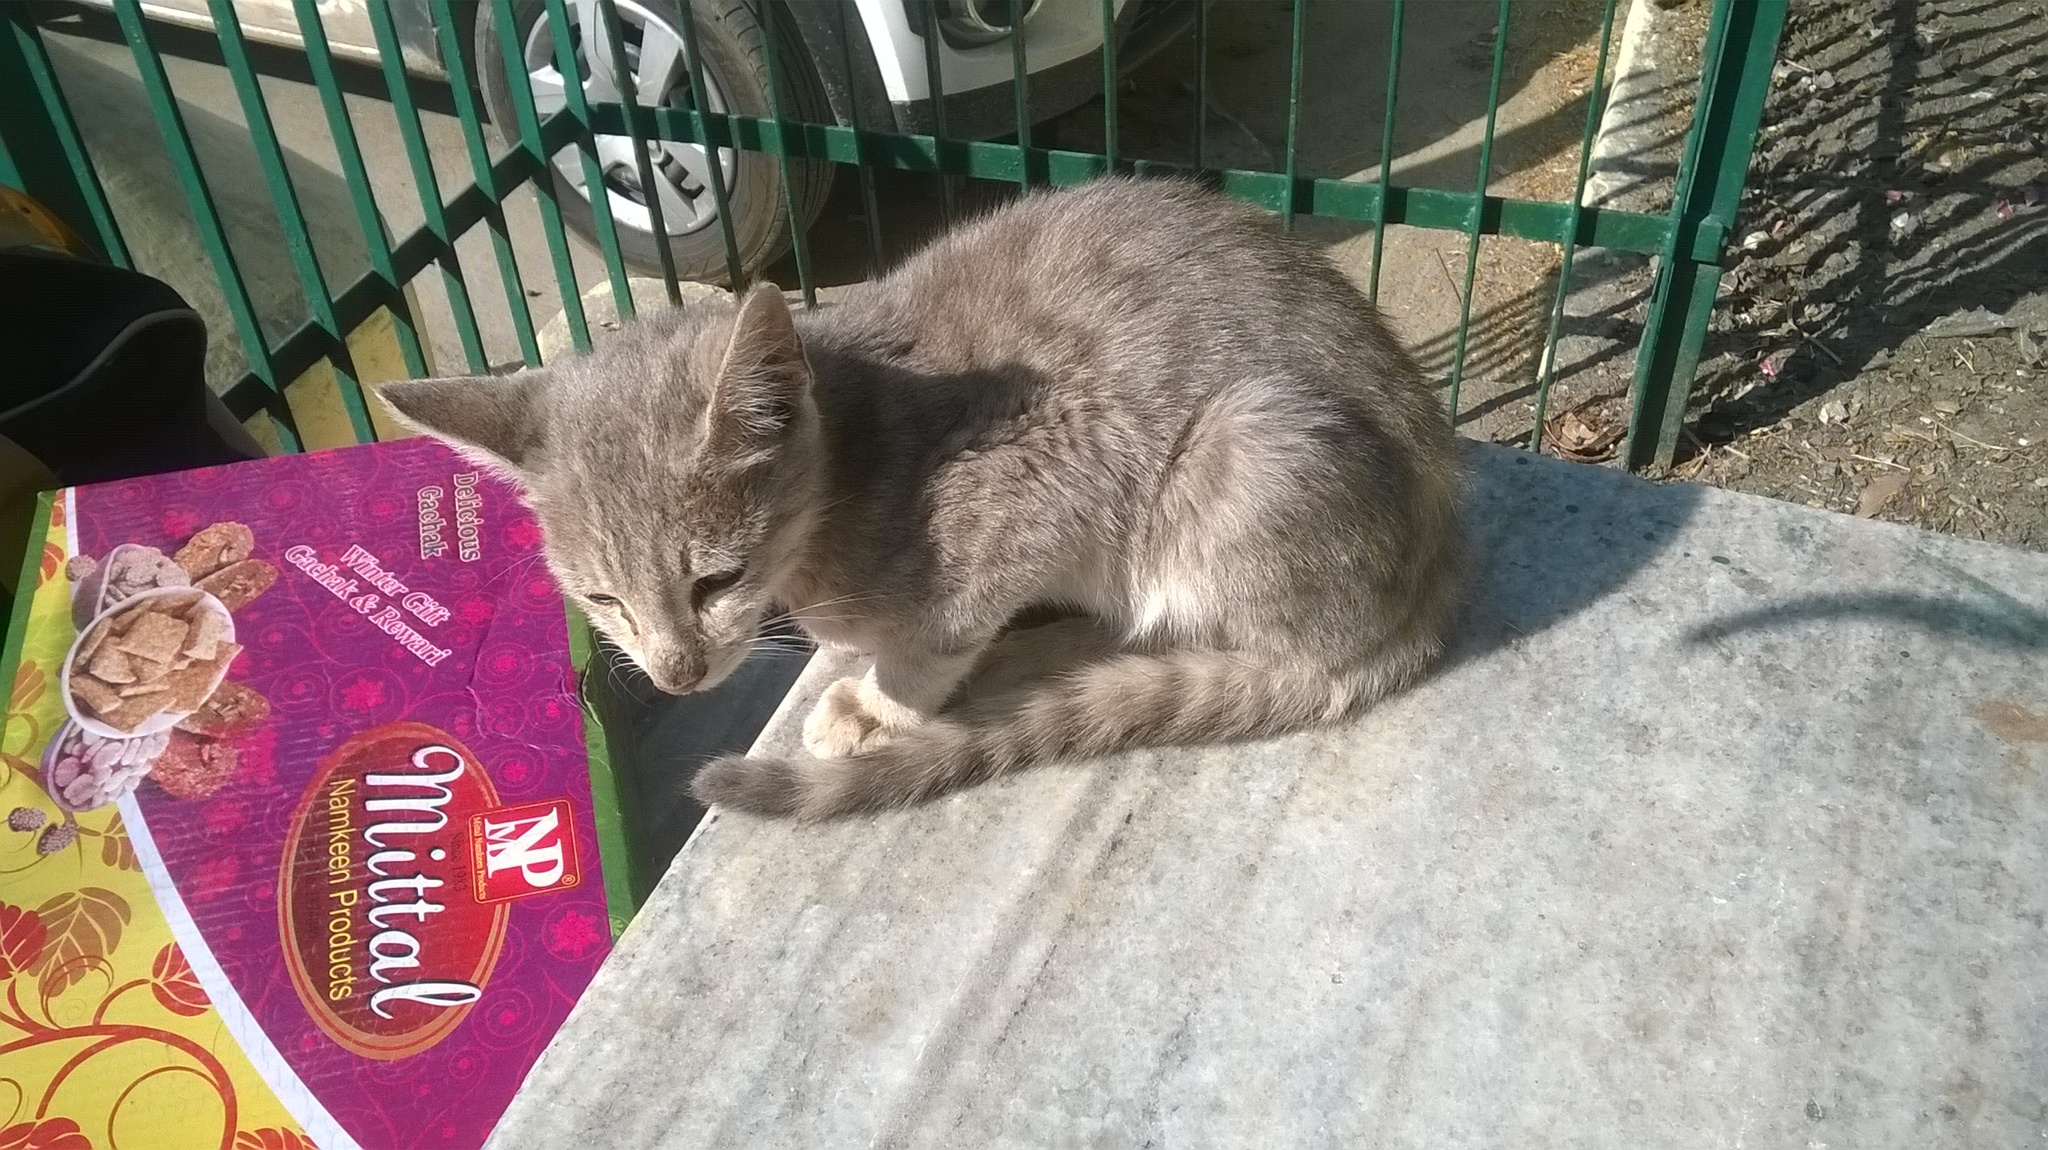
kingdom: Animalia
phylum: Chordata
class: Mammalia
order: Carnivora
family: Felidae
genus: Felis
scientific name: Felis catus
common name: Domestic cat
